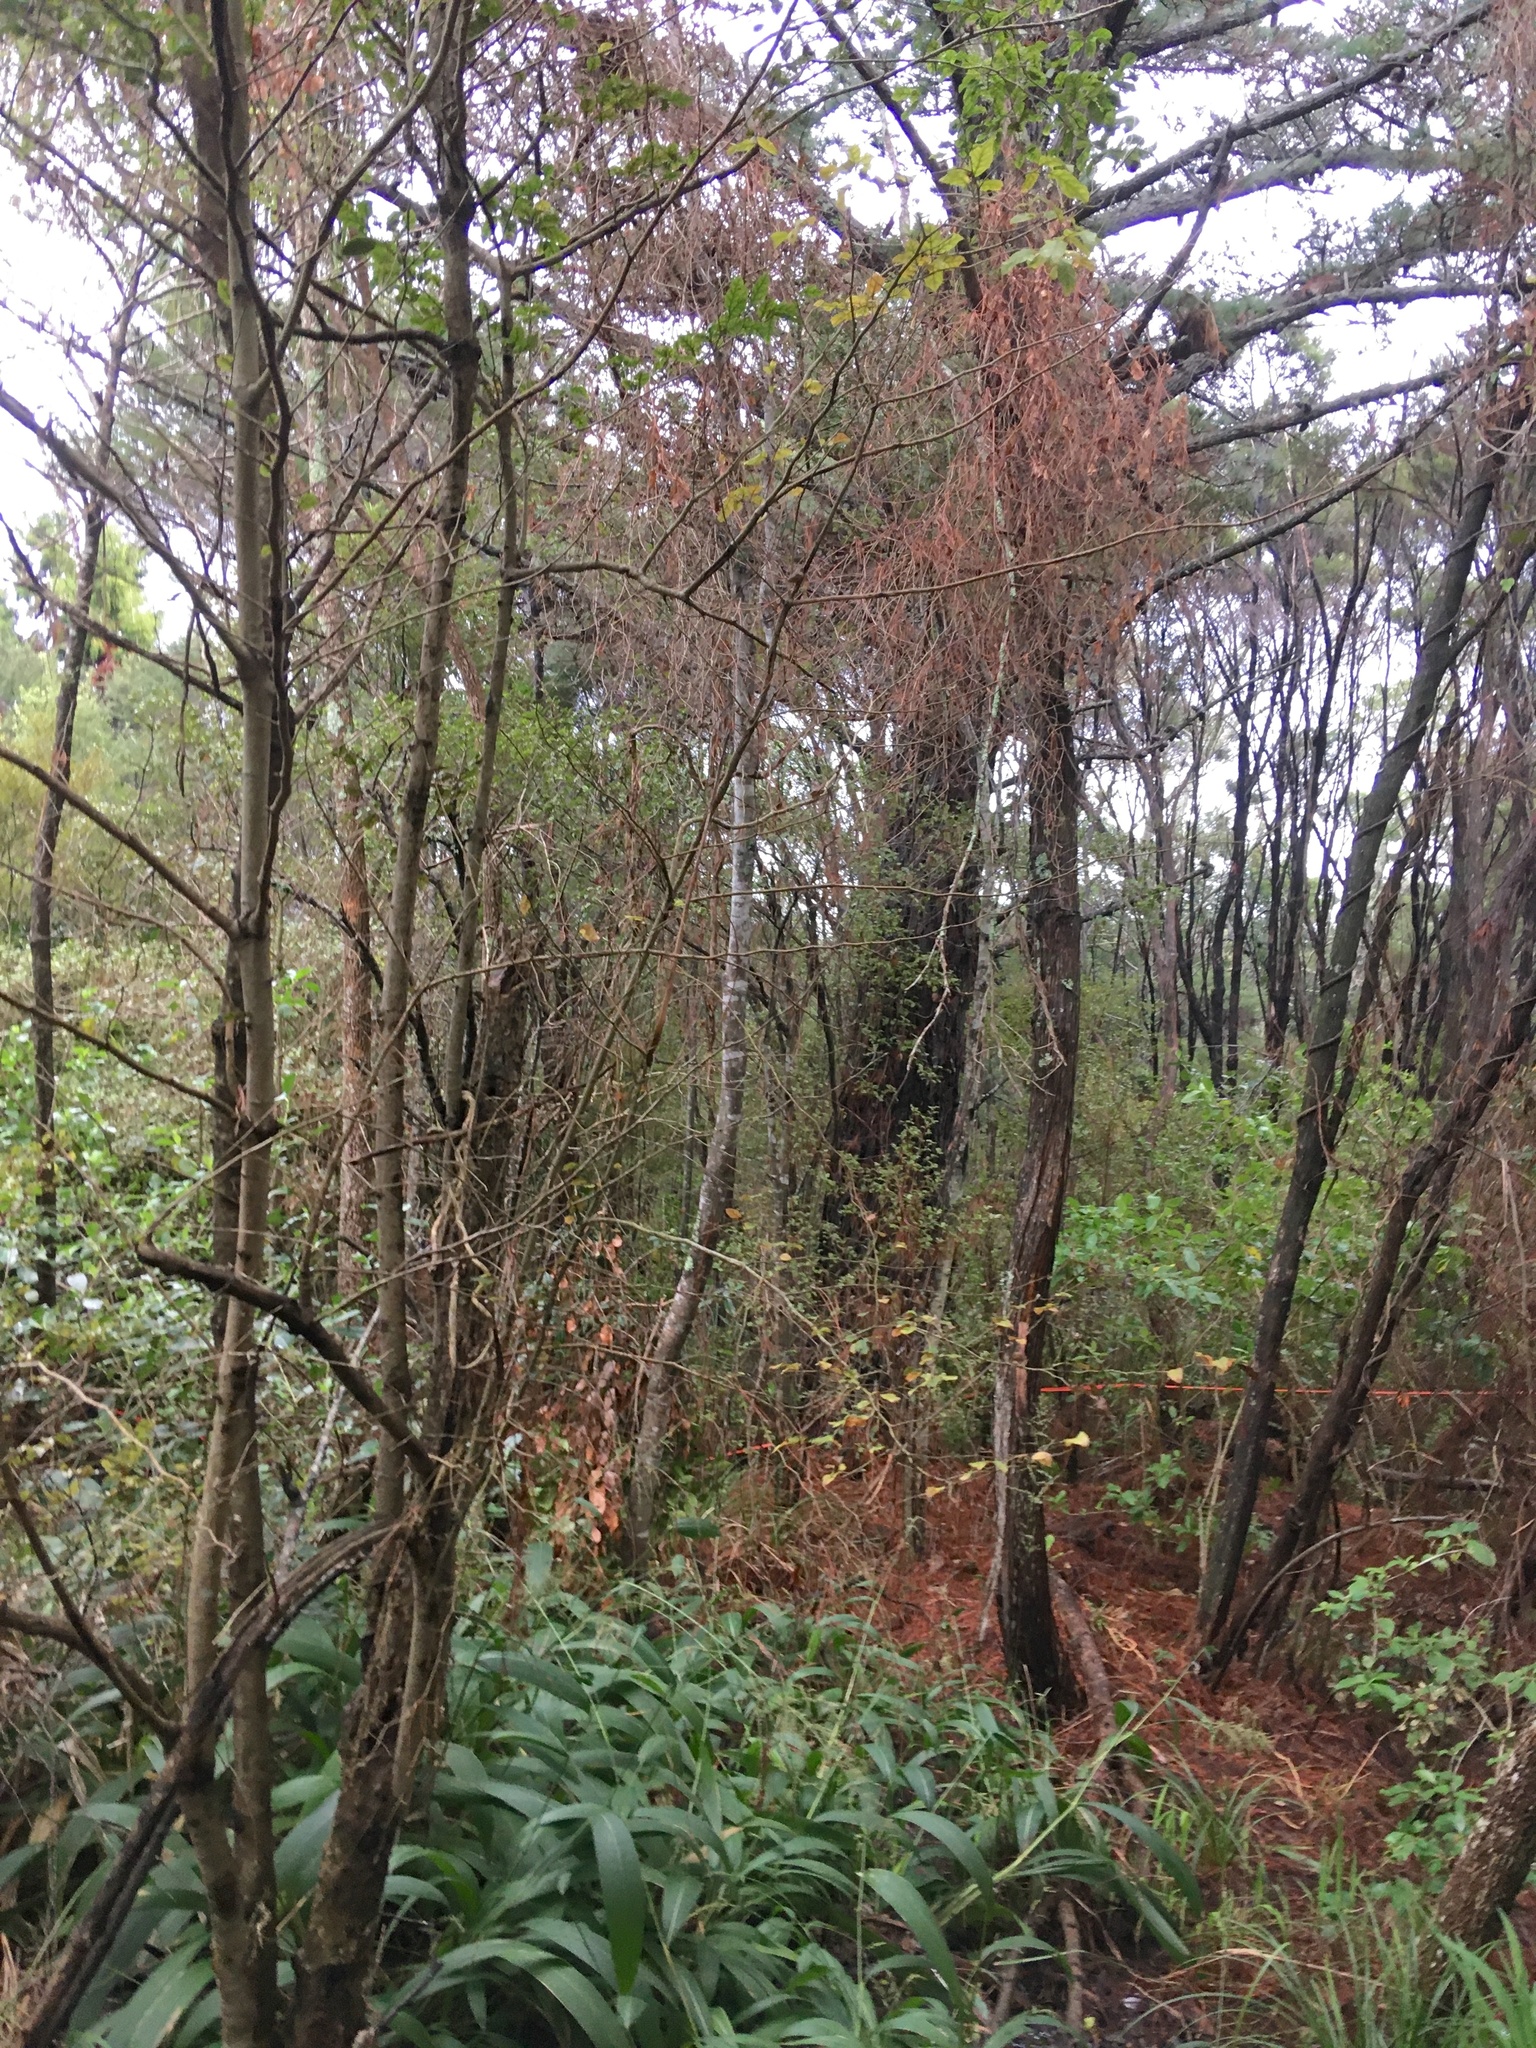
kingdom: Plantae
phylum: Tracheophyta
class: Liliopsida
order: Poales
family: Poaceae
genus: Setaria
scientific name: Setaria palmifolia
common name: Broadleaved bristlegrass
